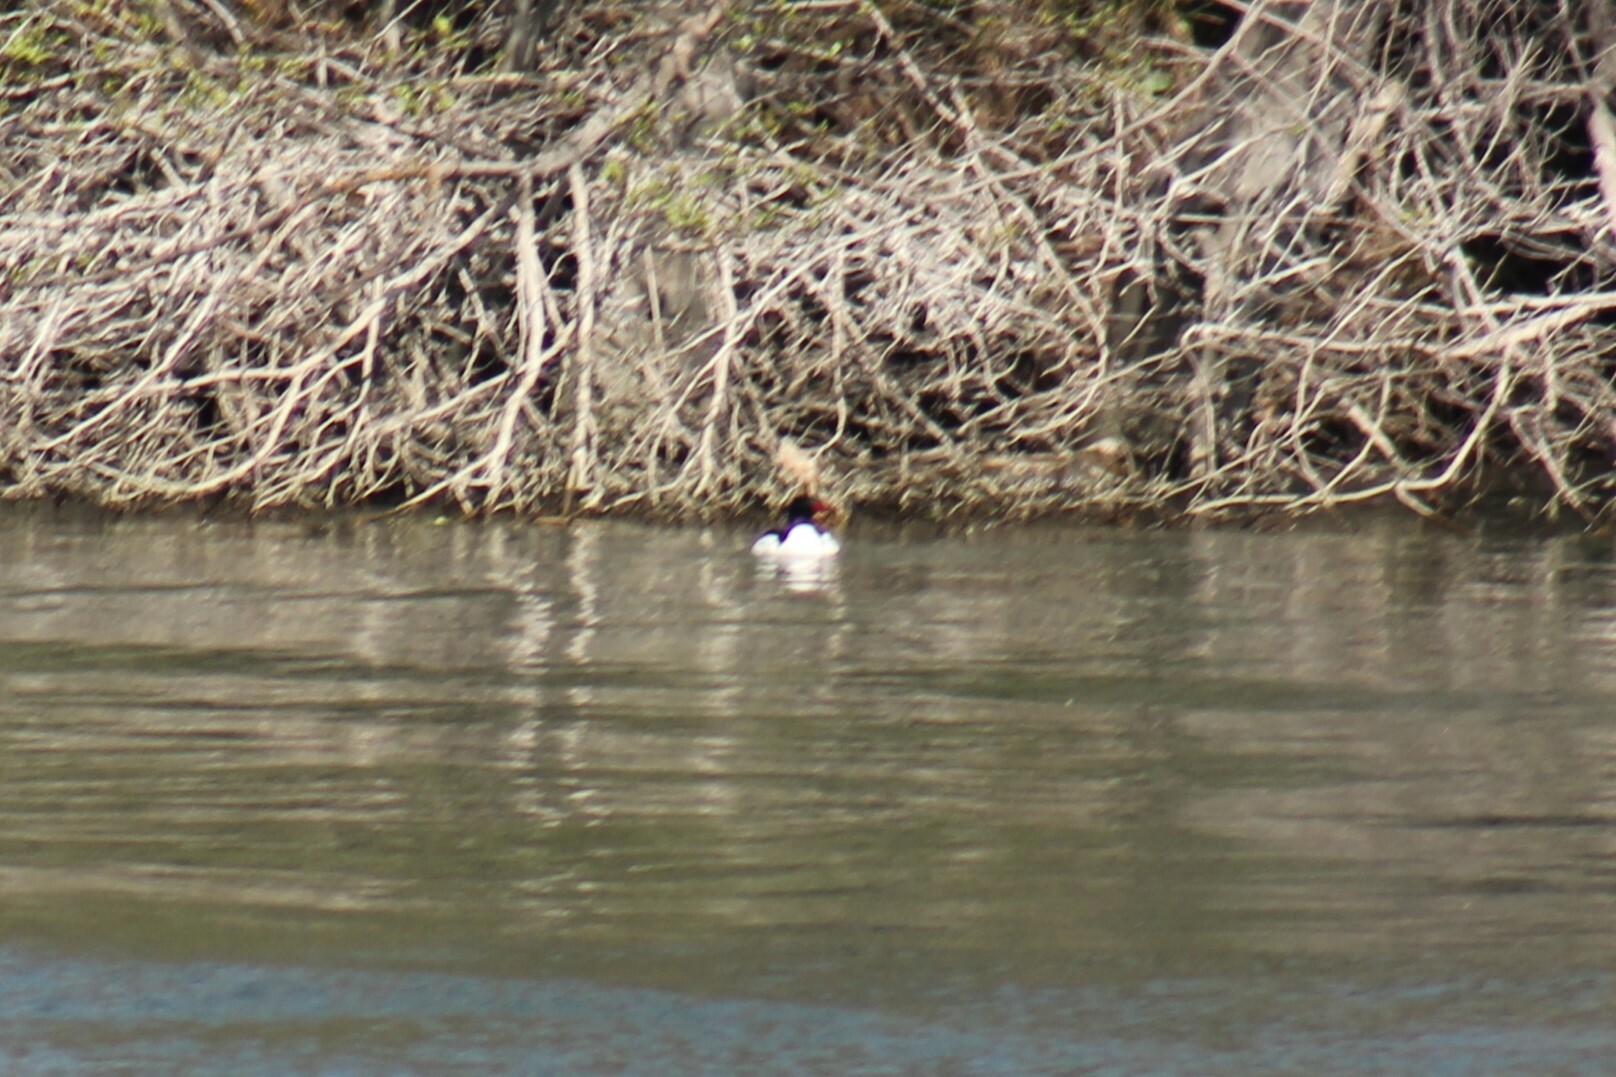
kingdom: Animalia
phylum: Chordata
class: Aves
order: Anseriformes
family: Anatidae
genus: Mergus
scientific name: Mergus merganser
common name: Common merganser
